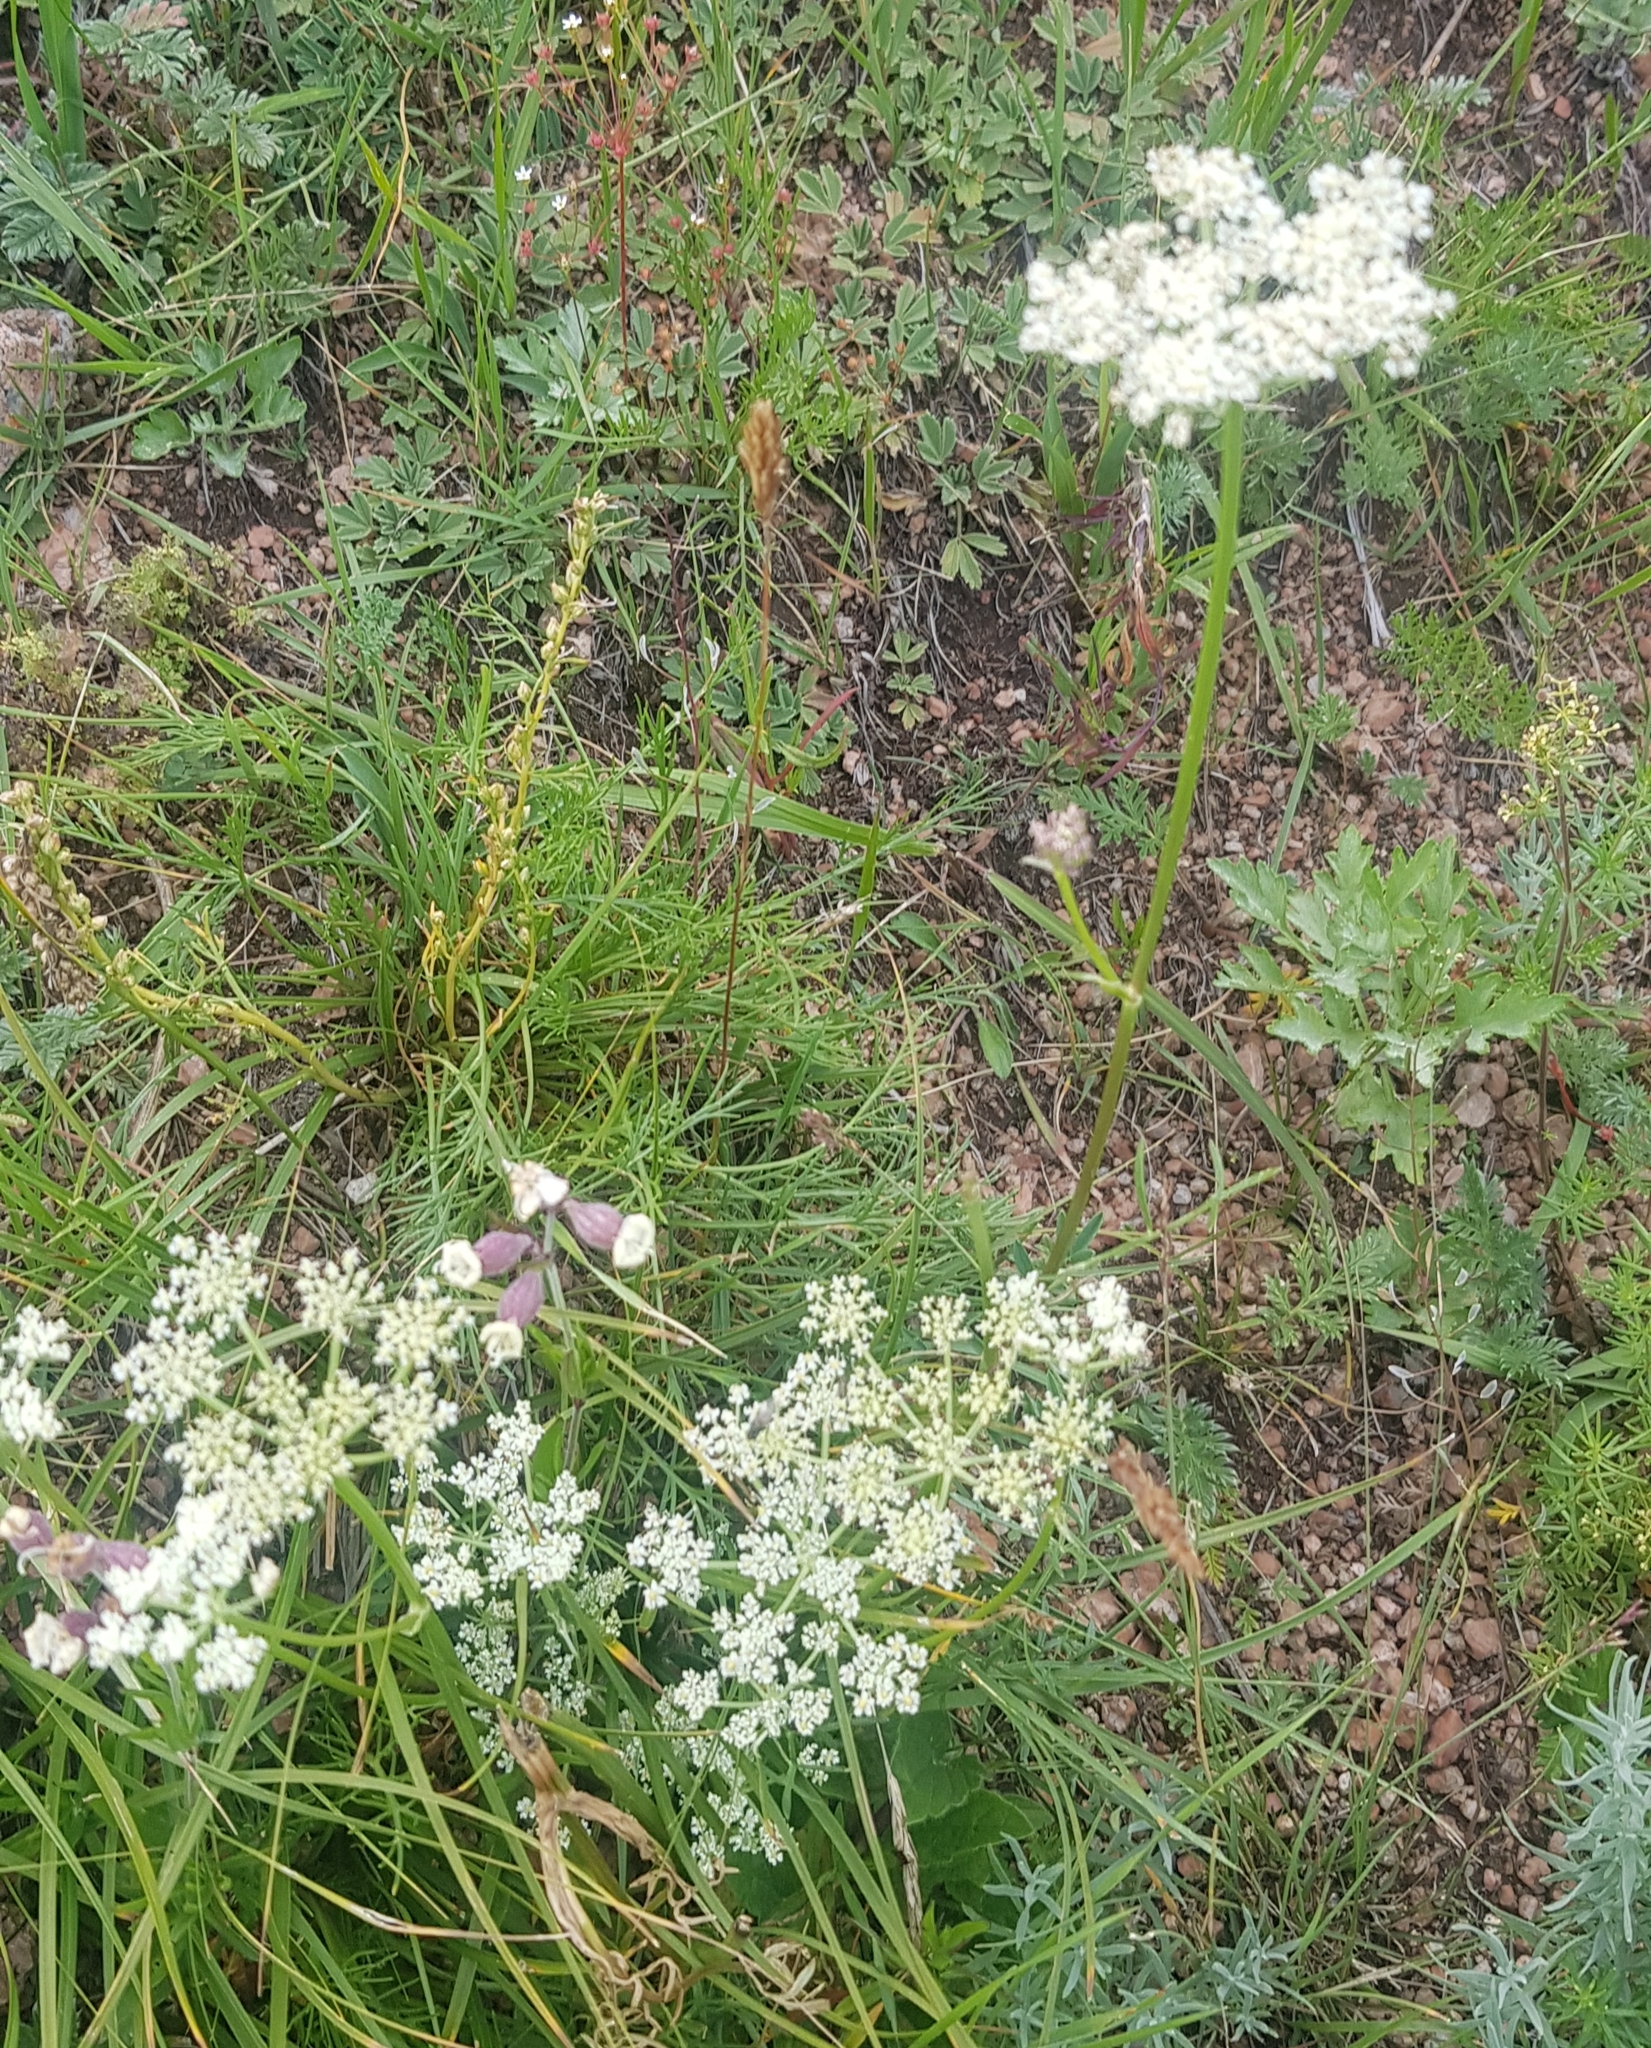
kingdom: Plantae
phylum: Tracheophyta
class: Magnoliopsida
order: Apiales
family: Apiaceae
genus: Kitagawia
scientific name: Kitagawia baicalensis
